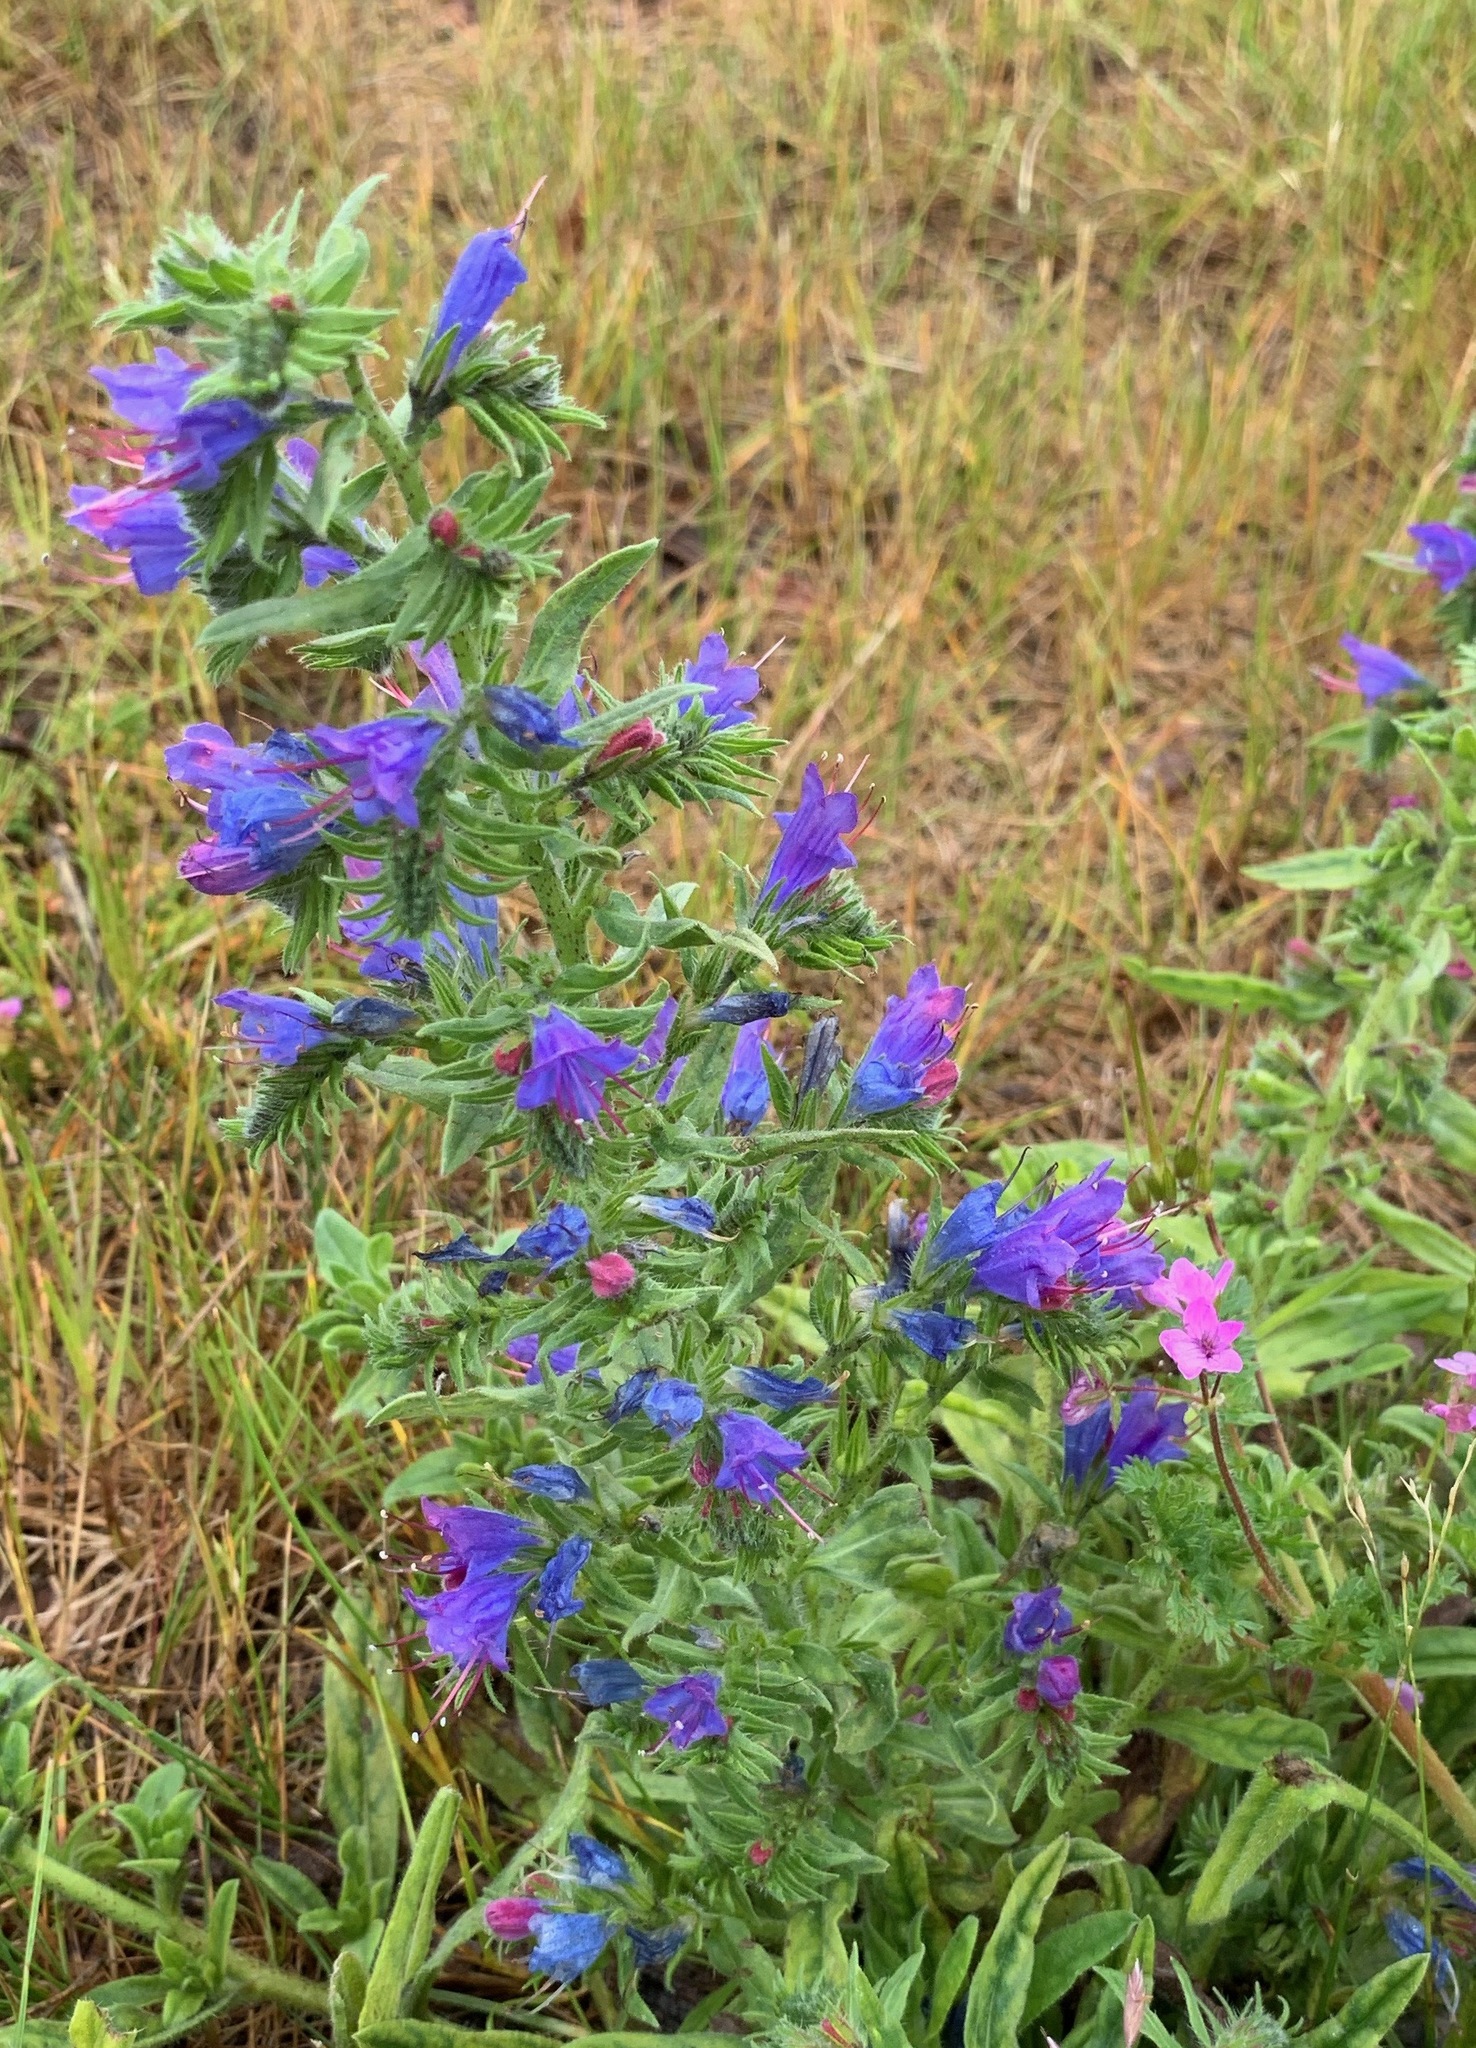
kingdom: Plantae
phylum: Tracheophyta
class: Magnoliopsida
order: Boraginales
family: Boraginaceae
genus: Echium
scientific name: Echium vulgare
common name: Common viper's bugloss
